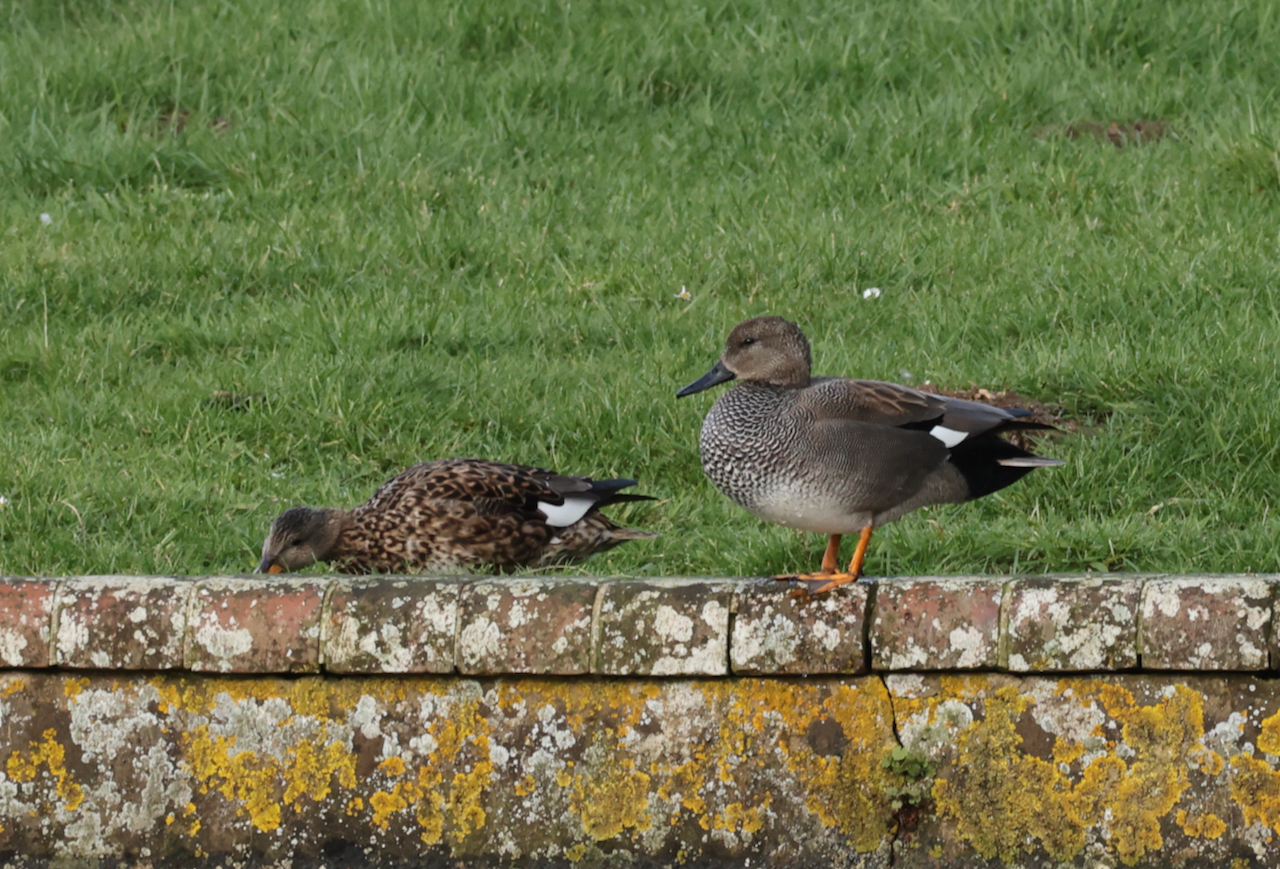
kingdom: Animalia
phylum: Chordata
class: Aves
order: Anseriformes
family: Anatidae
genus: Mareca
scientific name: Mareca strepera
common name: Gadwall
